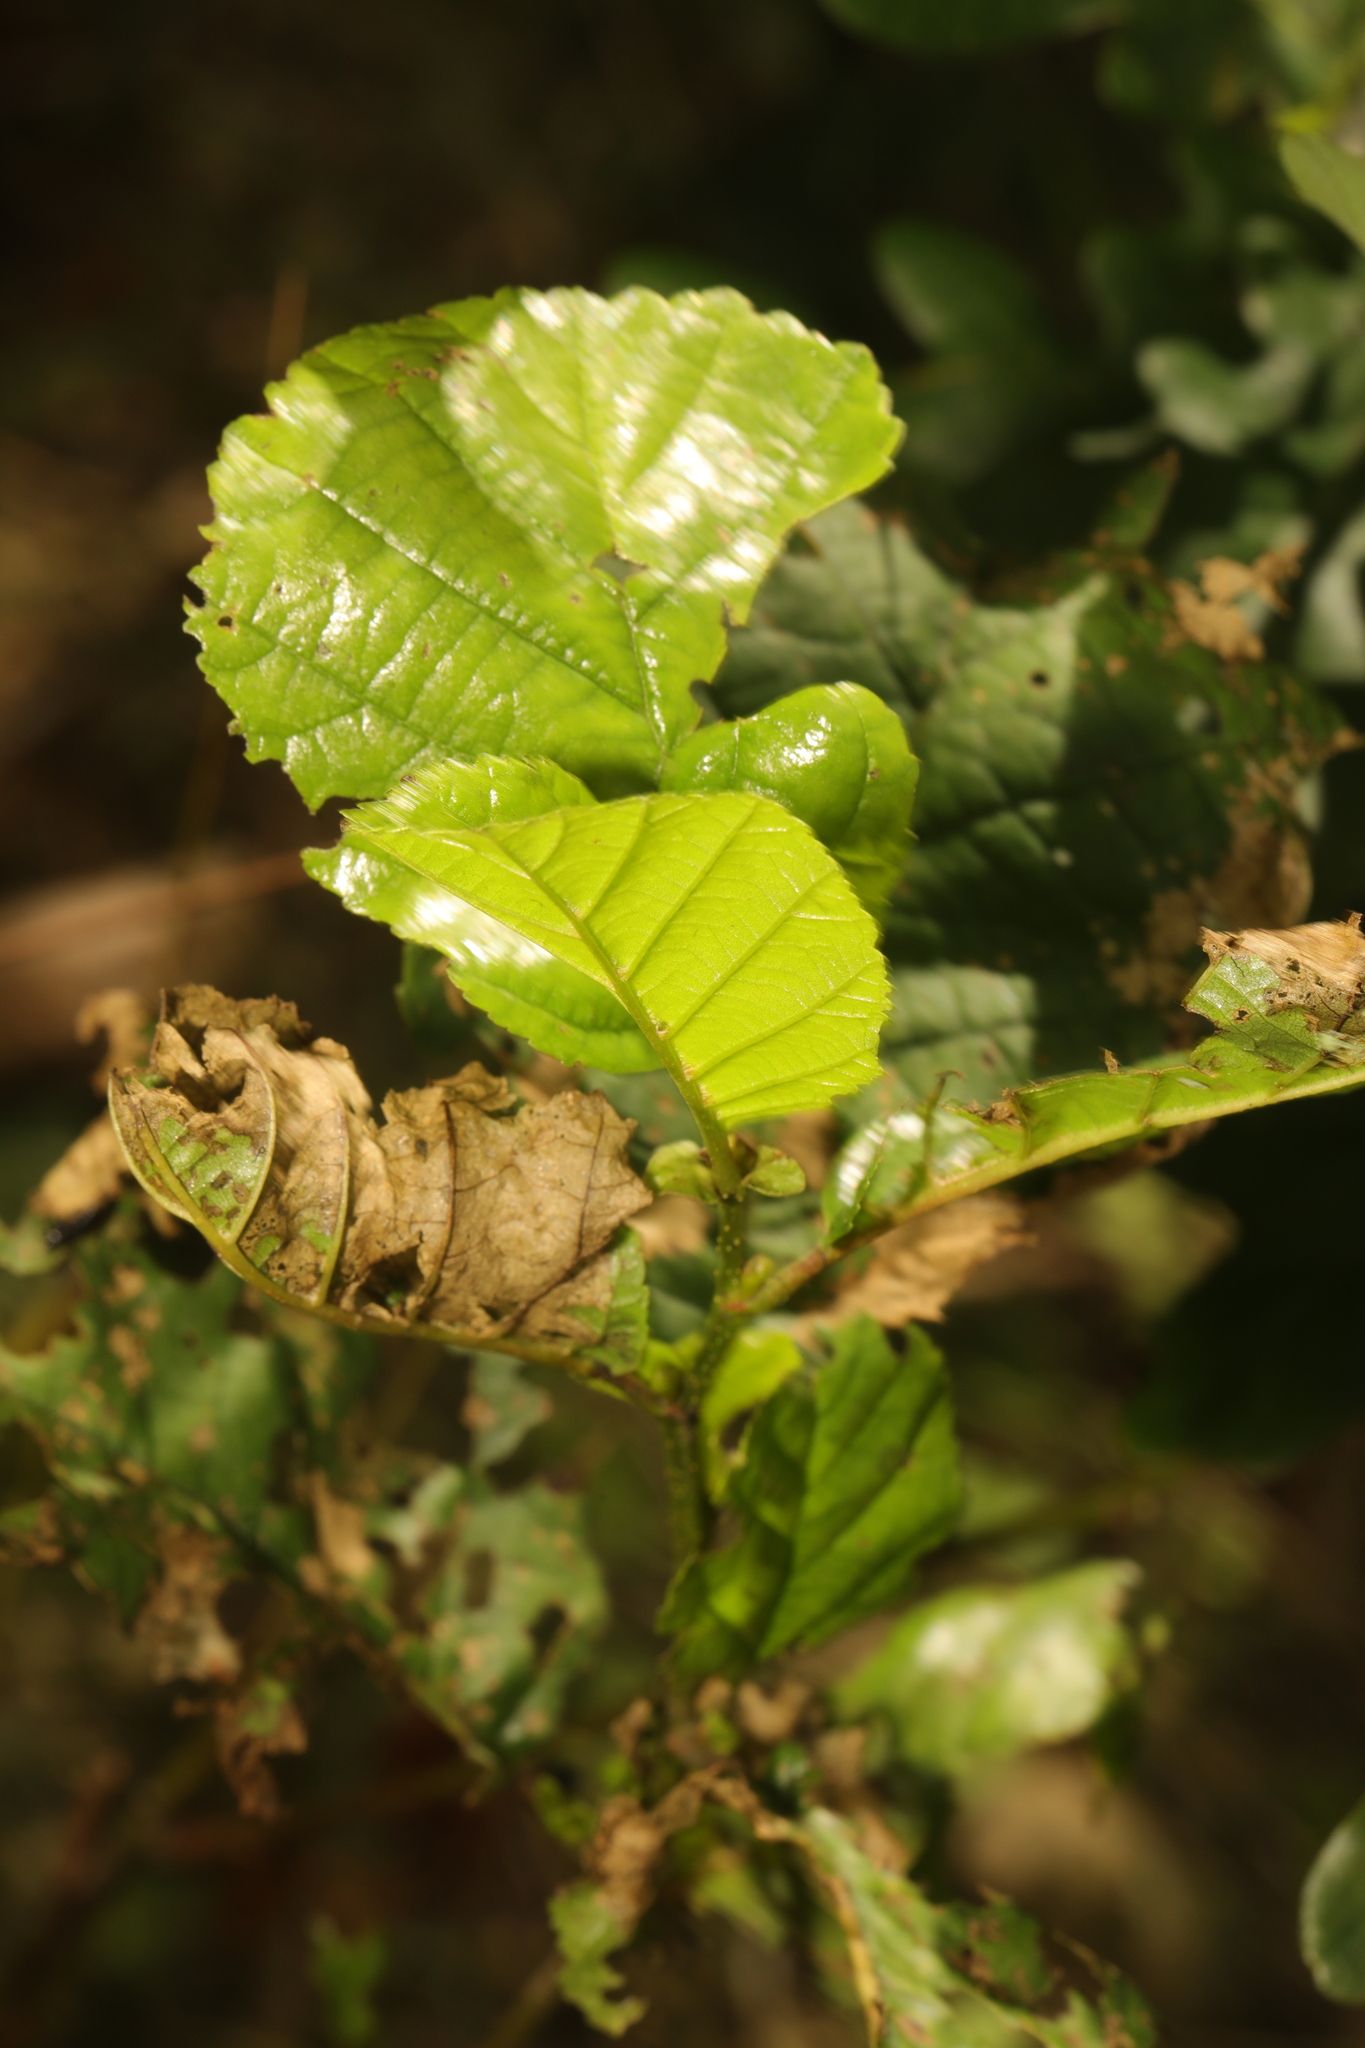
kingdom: Plantae
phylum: Tracheophyta
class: Magnoliopsida
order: Fagales
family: Betulaceae
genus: Alnus
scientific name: Alnus glutinosa
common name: Black alder
